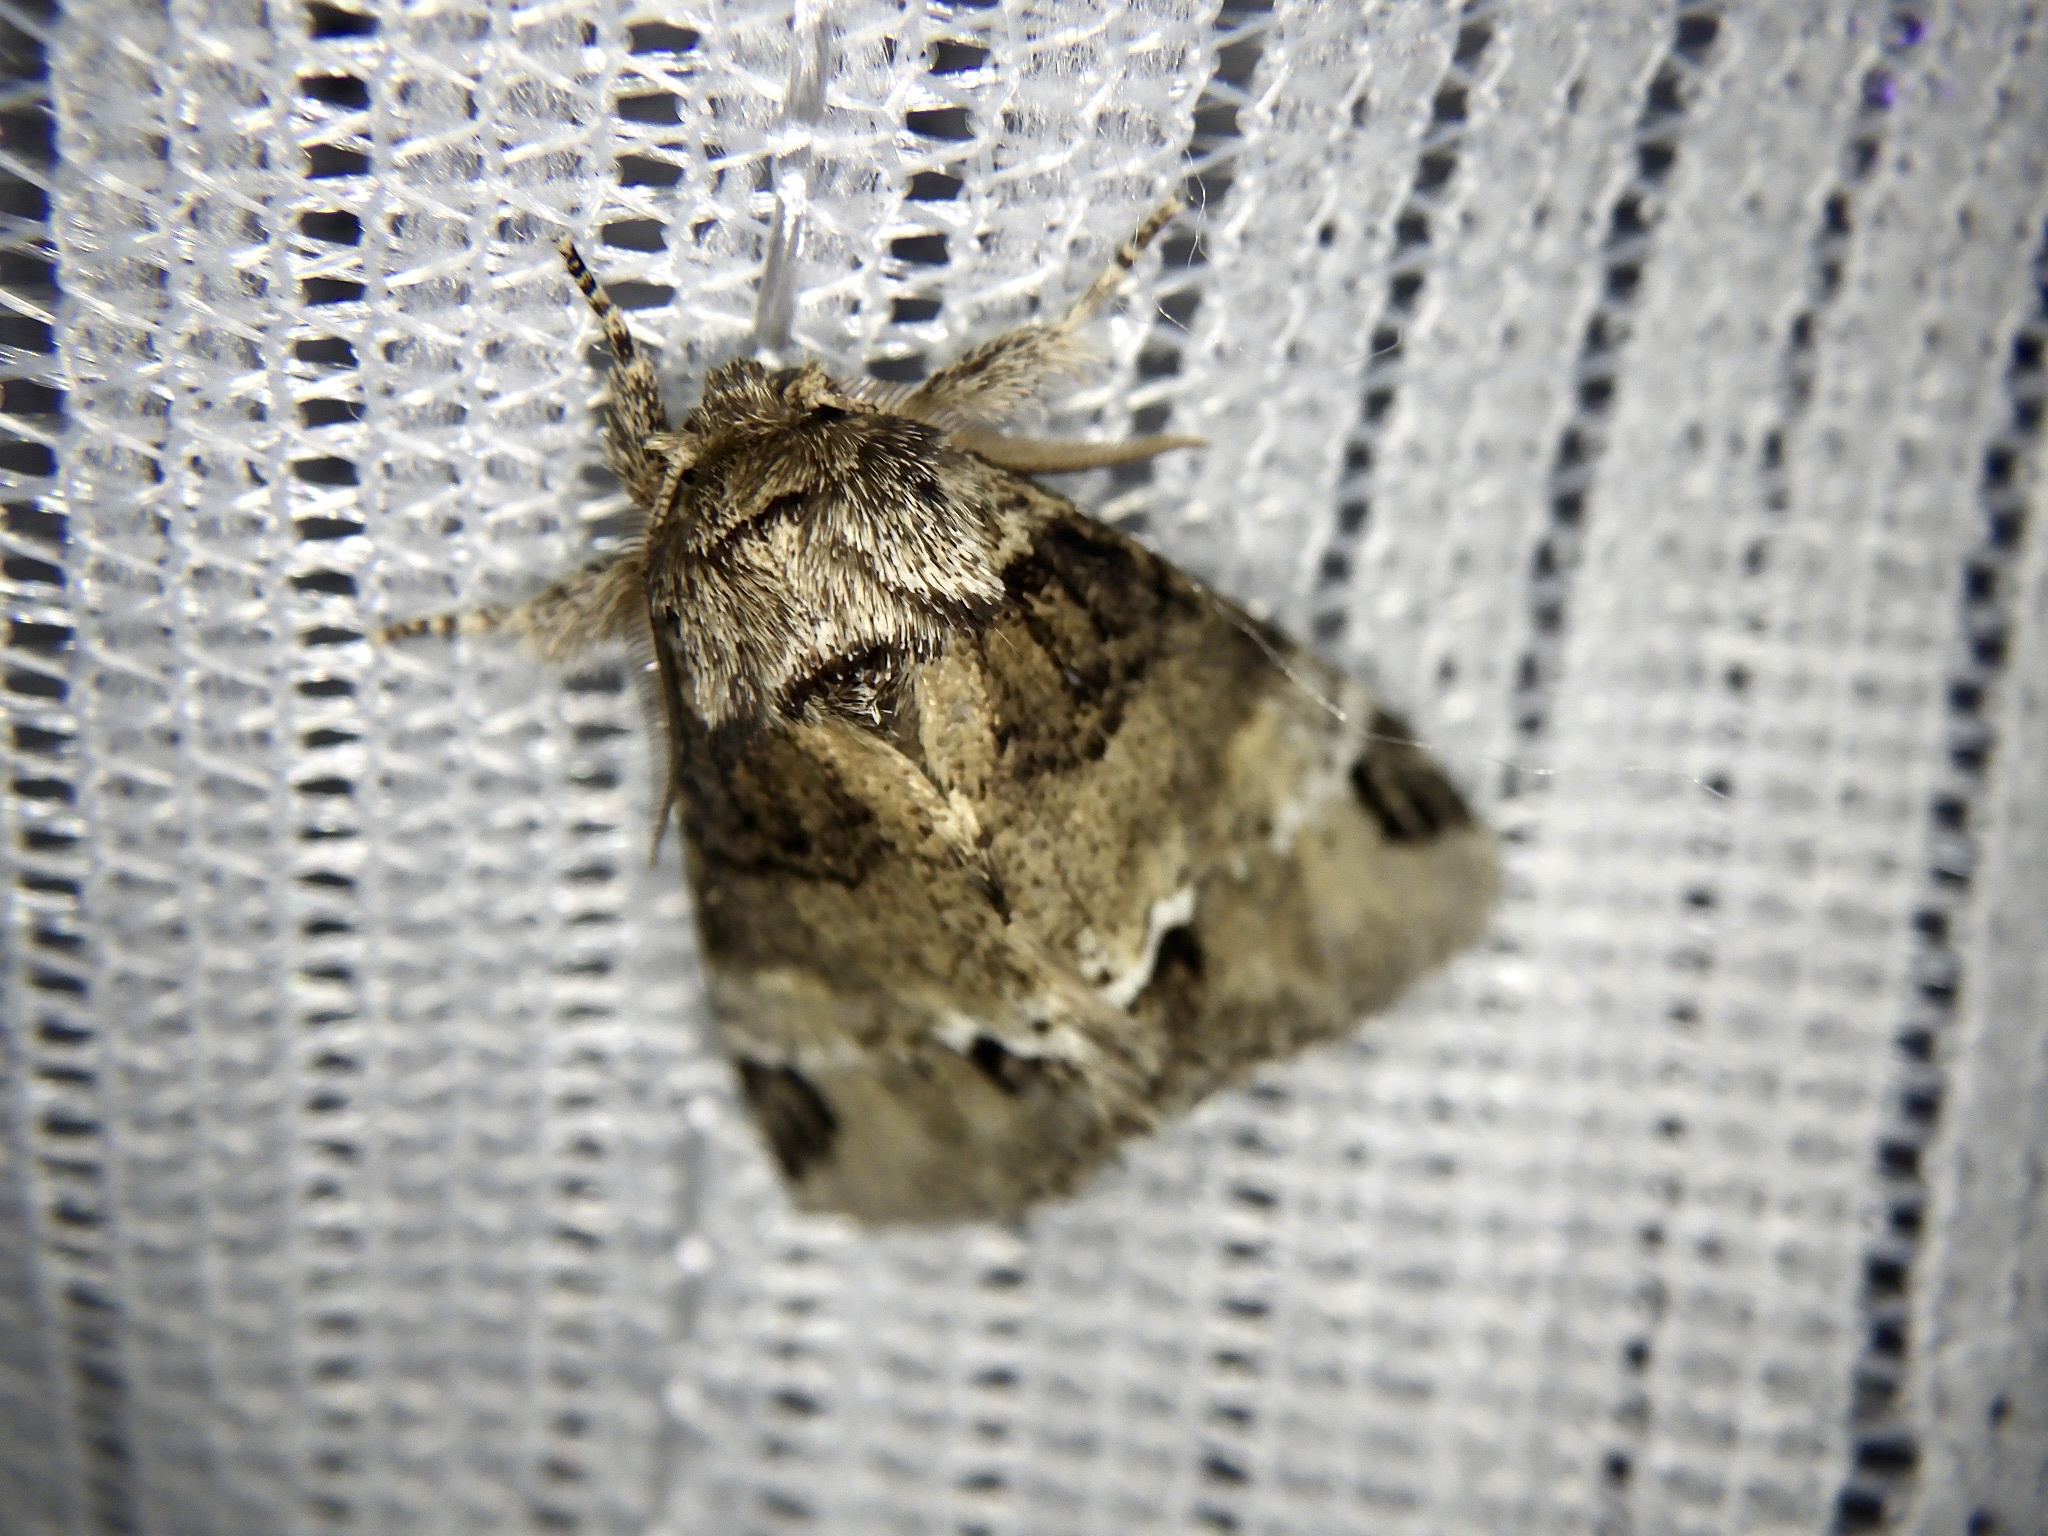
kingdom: Animalia
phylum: Arthropoda
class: Insecta
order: Lepidoptera
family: Notodontidae
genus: Drymonia
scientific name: Drymonia japonica
